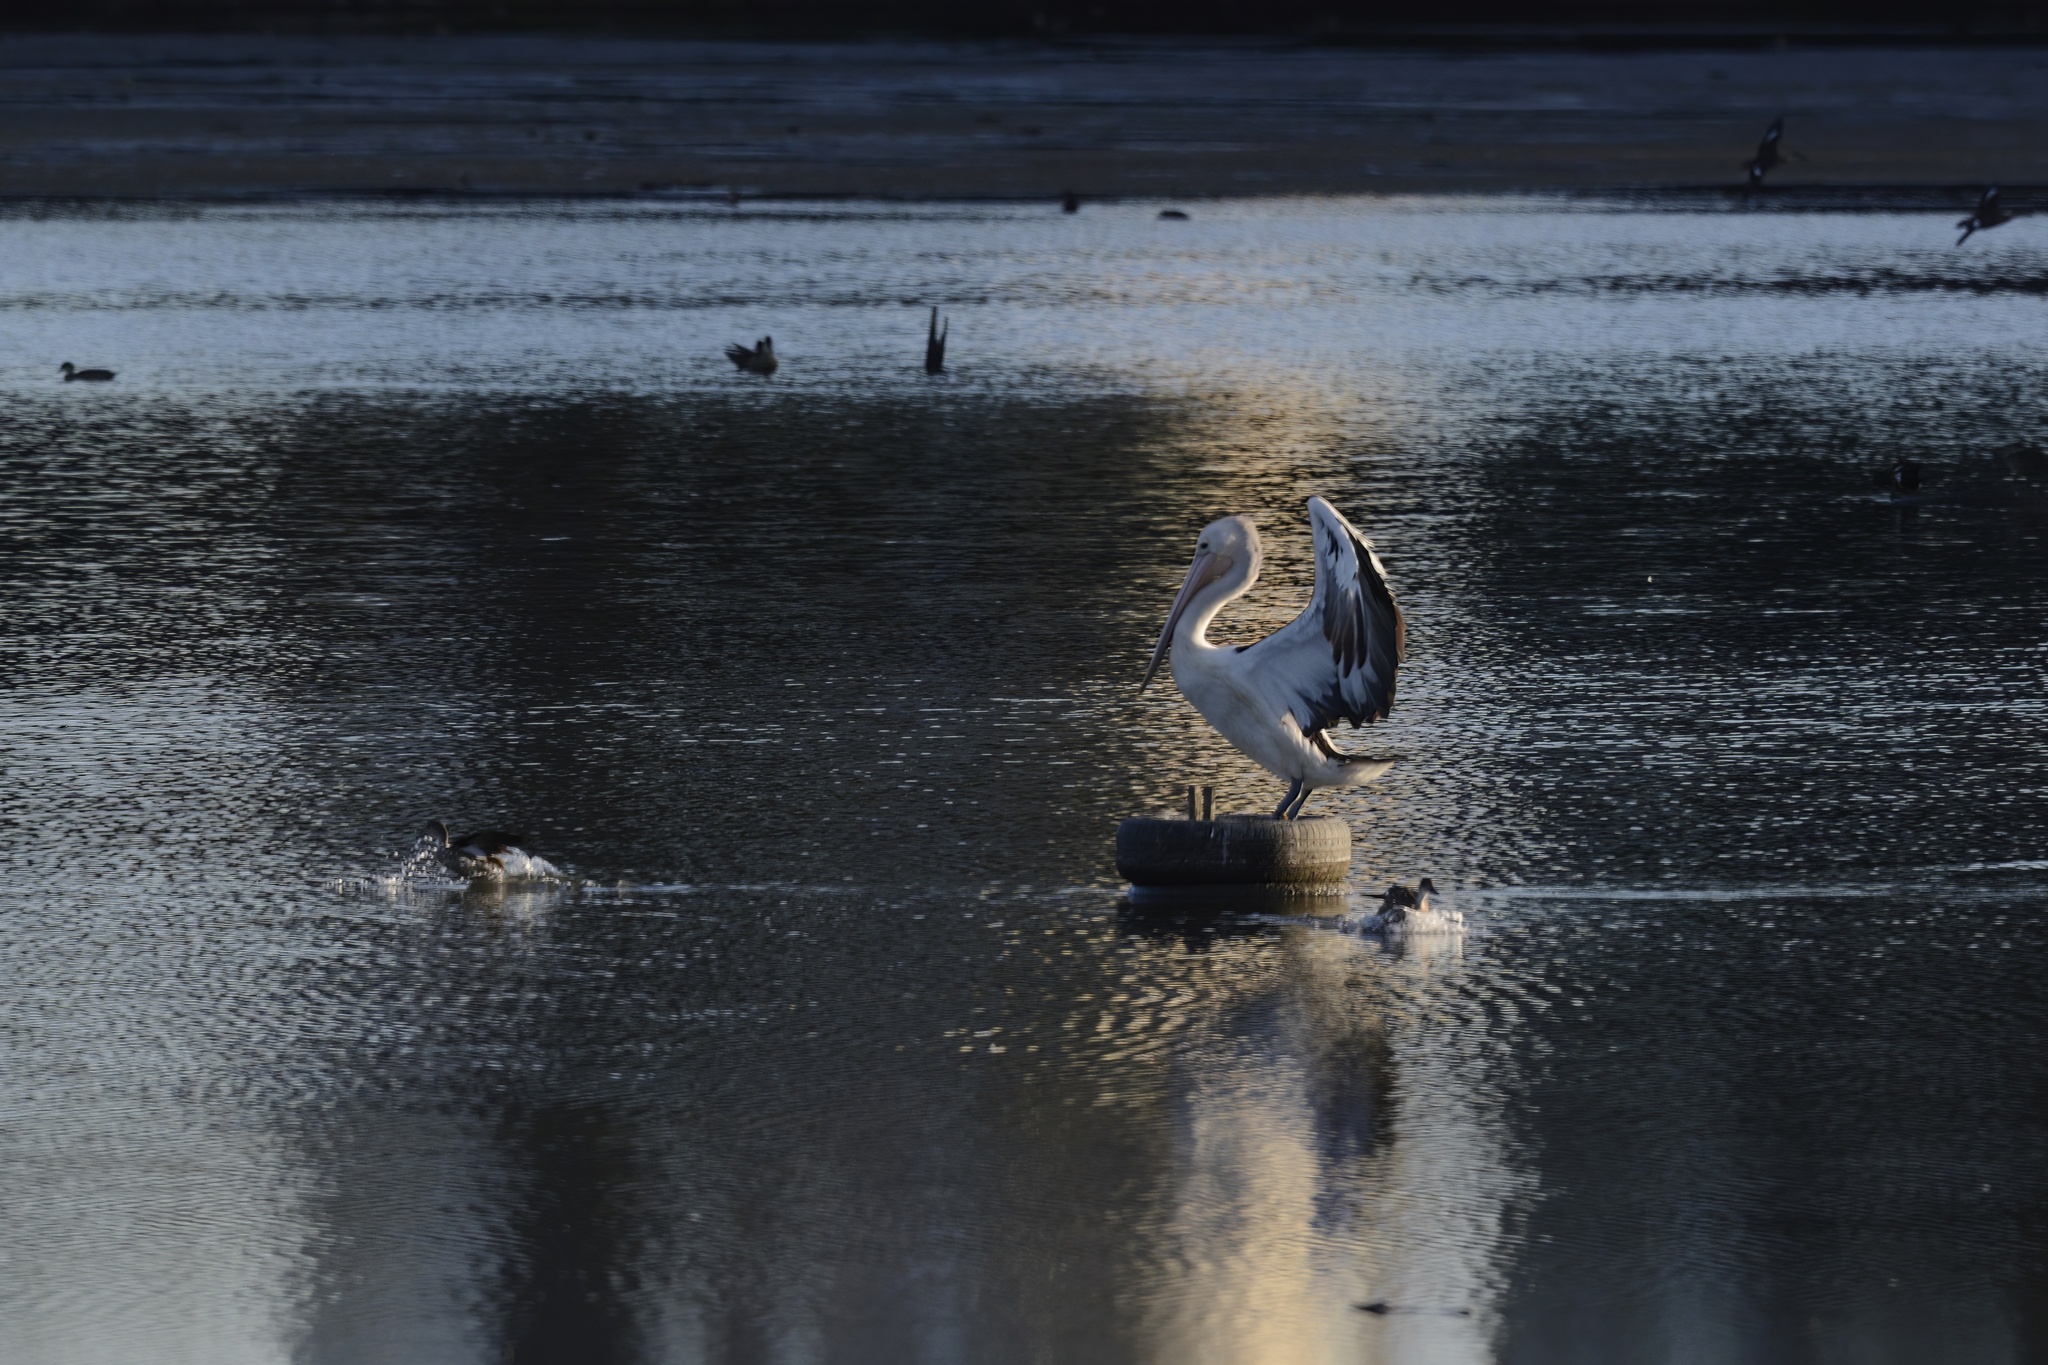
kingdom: Animalia
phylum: Chordata
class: Aves
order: Pelecaniformes
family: Pelecanidae
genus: Pelecanus
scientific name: Pelecanus conspicillatus
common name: Australian pelican
